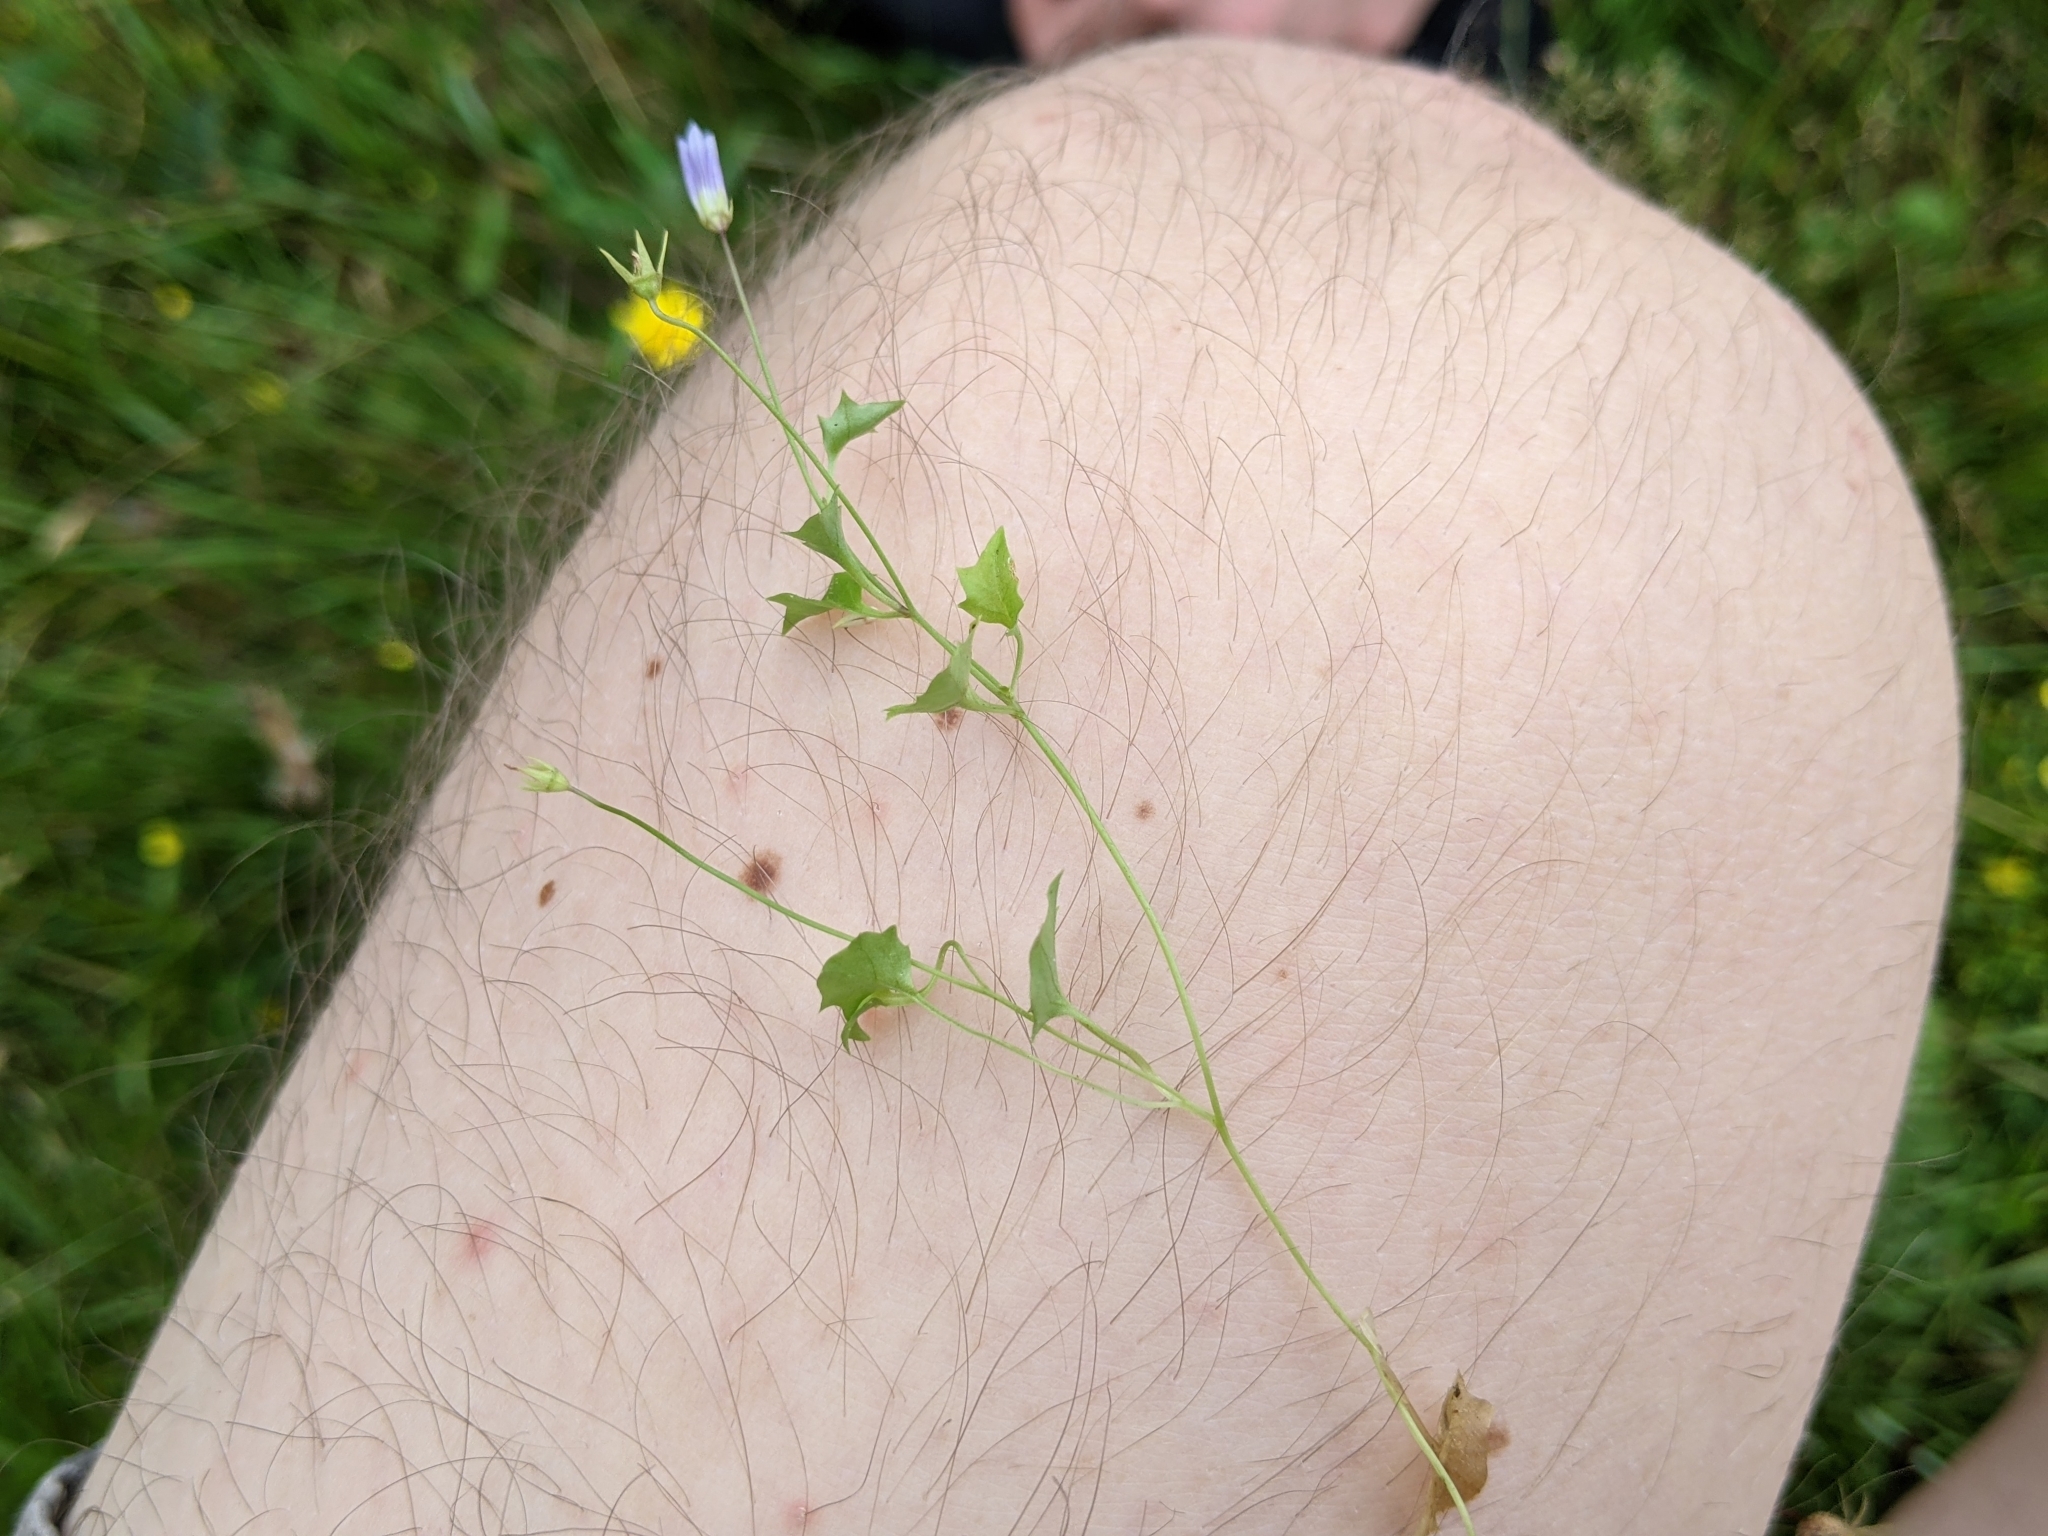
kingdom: Plantae
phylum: Tracheophyta
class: Magnoliopsida
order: Asterales
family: Campanulaceae
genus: Hesperocodon
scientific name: Hesperocodon hederaceus
